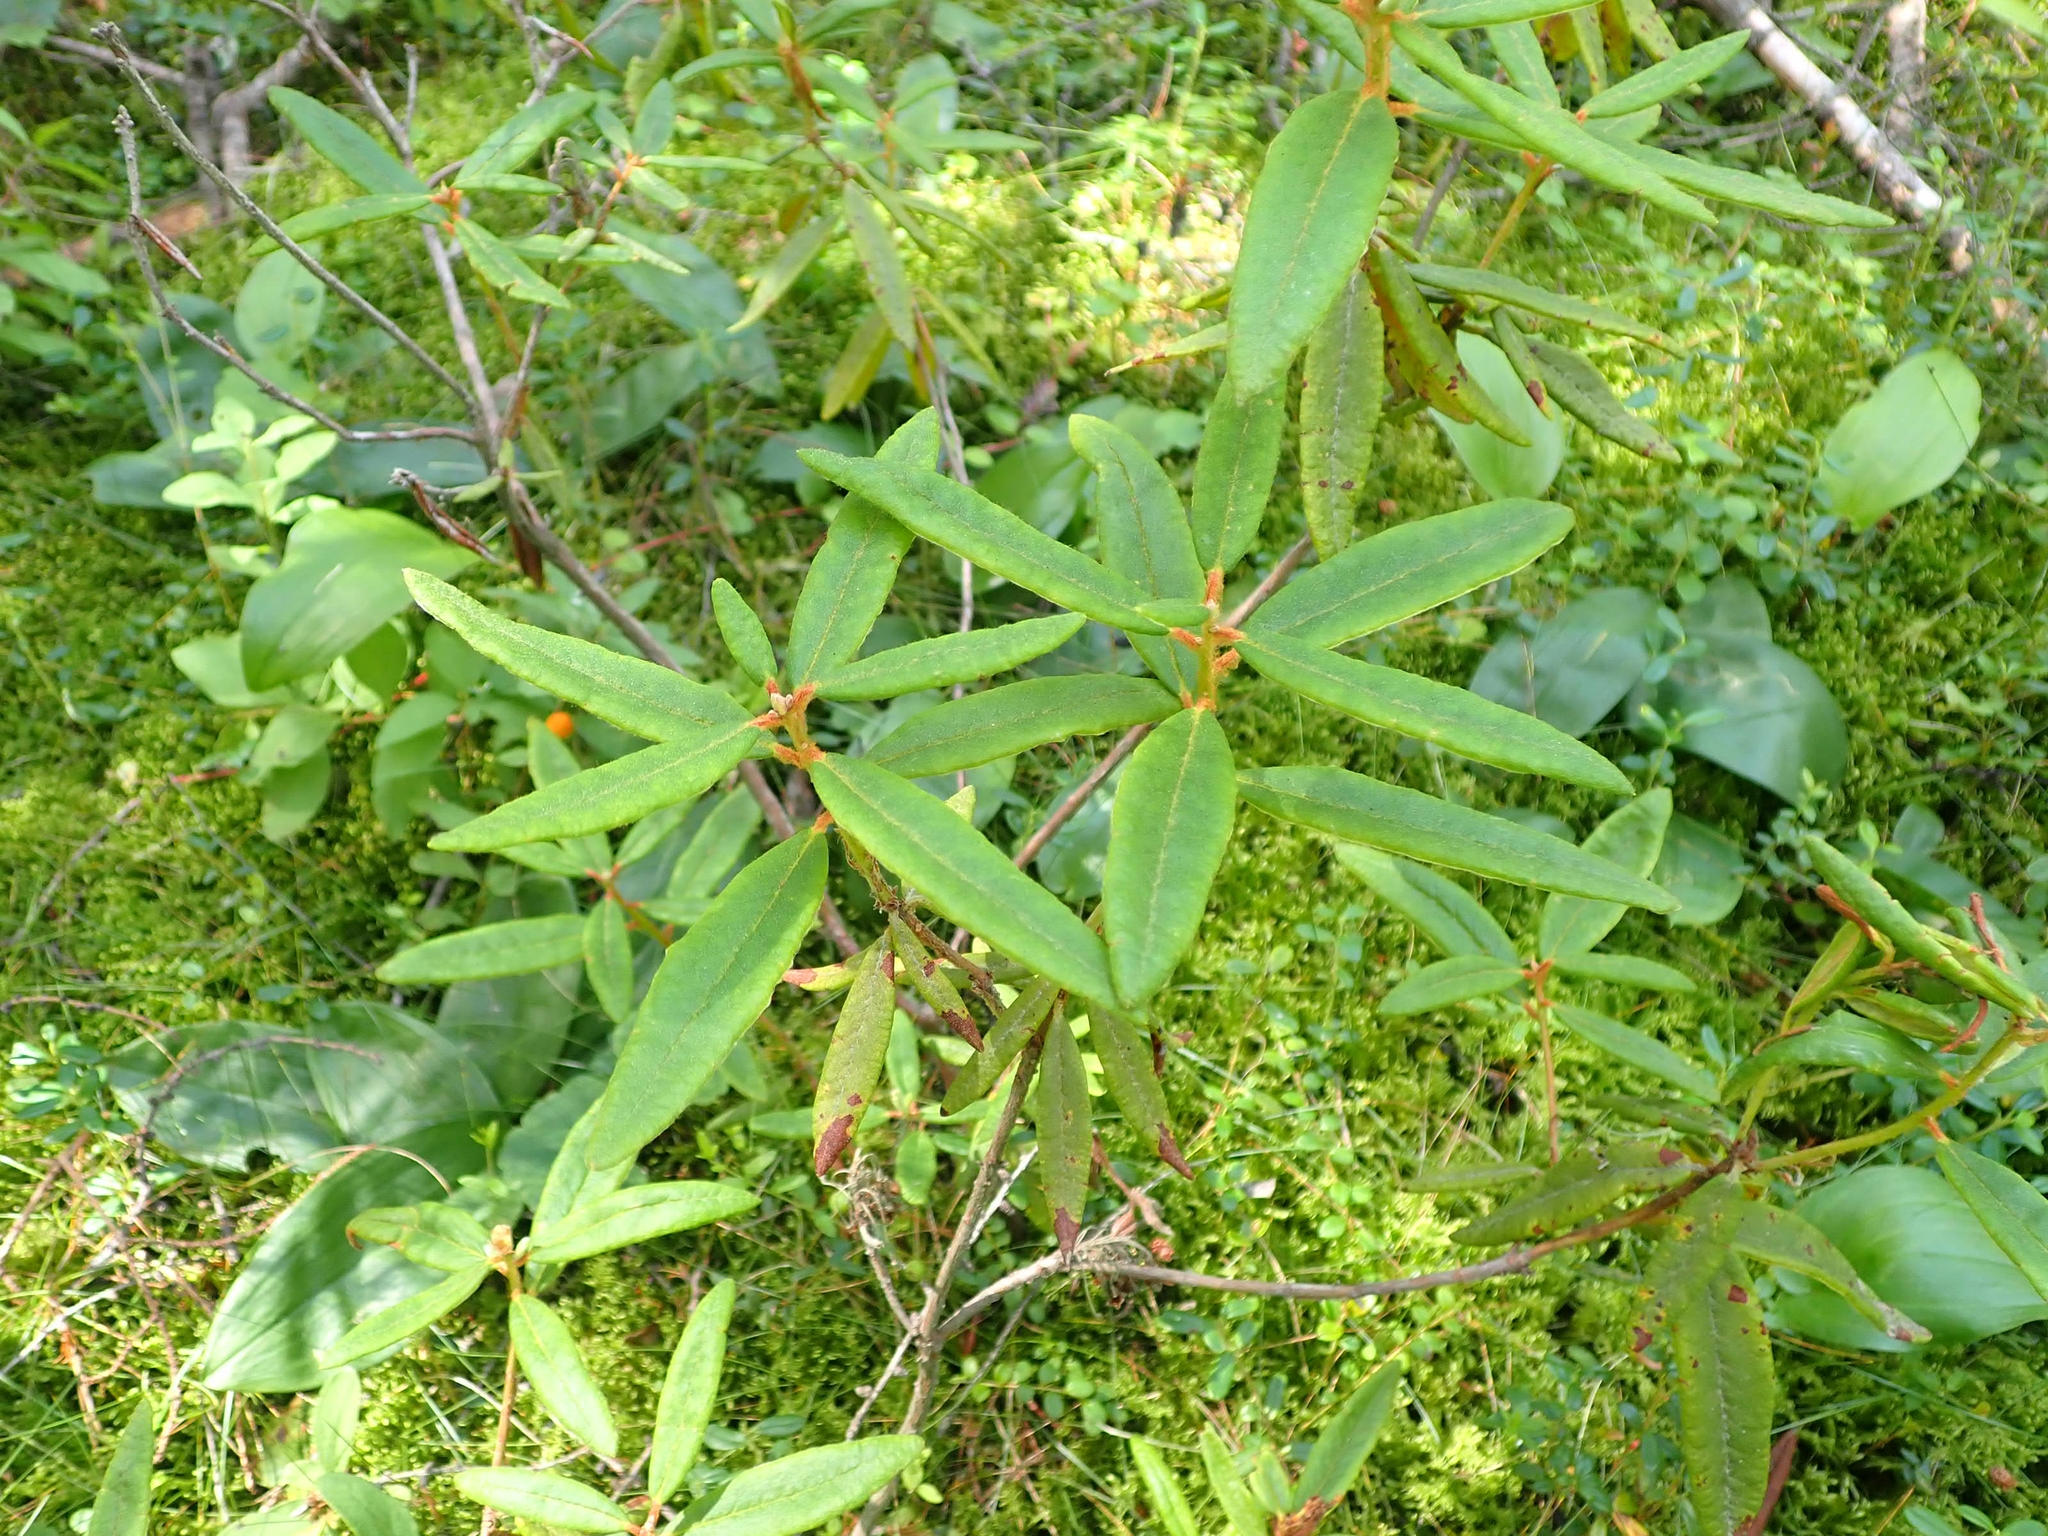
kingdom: Plantae
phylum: Tracheophyta
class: Magnoliopsida
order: Ericales
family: Ericaceae
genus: Rhododendron
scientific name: Rhododendron groenlandicum
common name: Bog labrador tea
